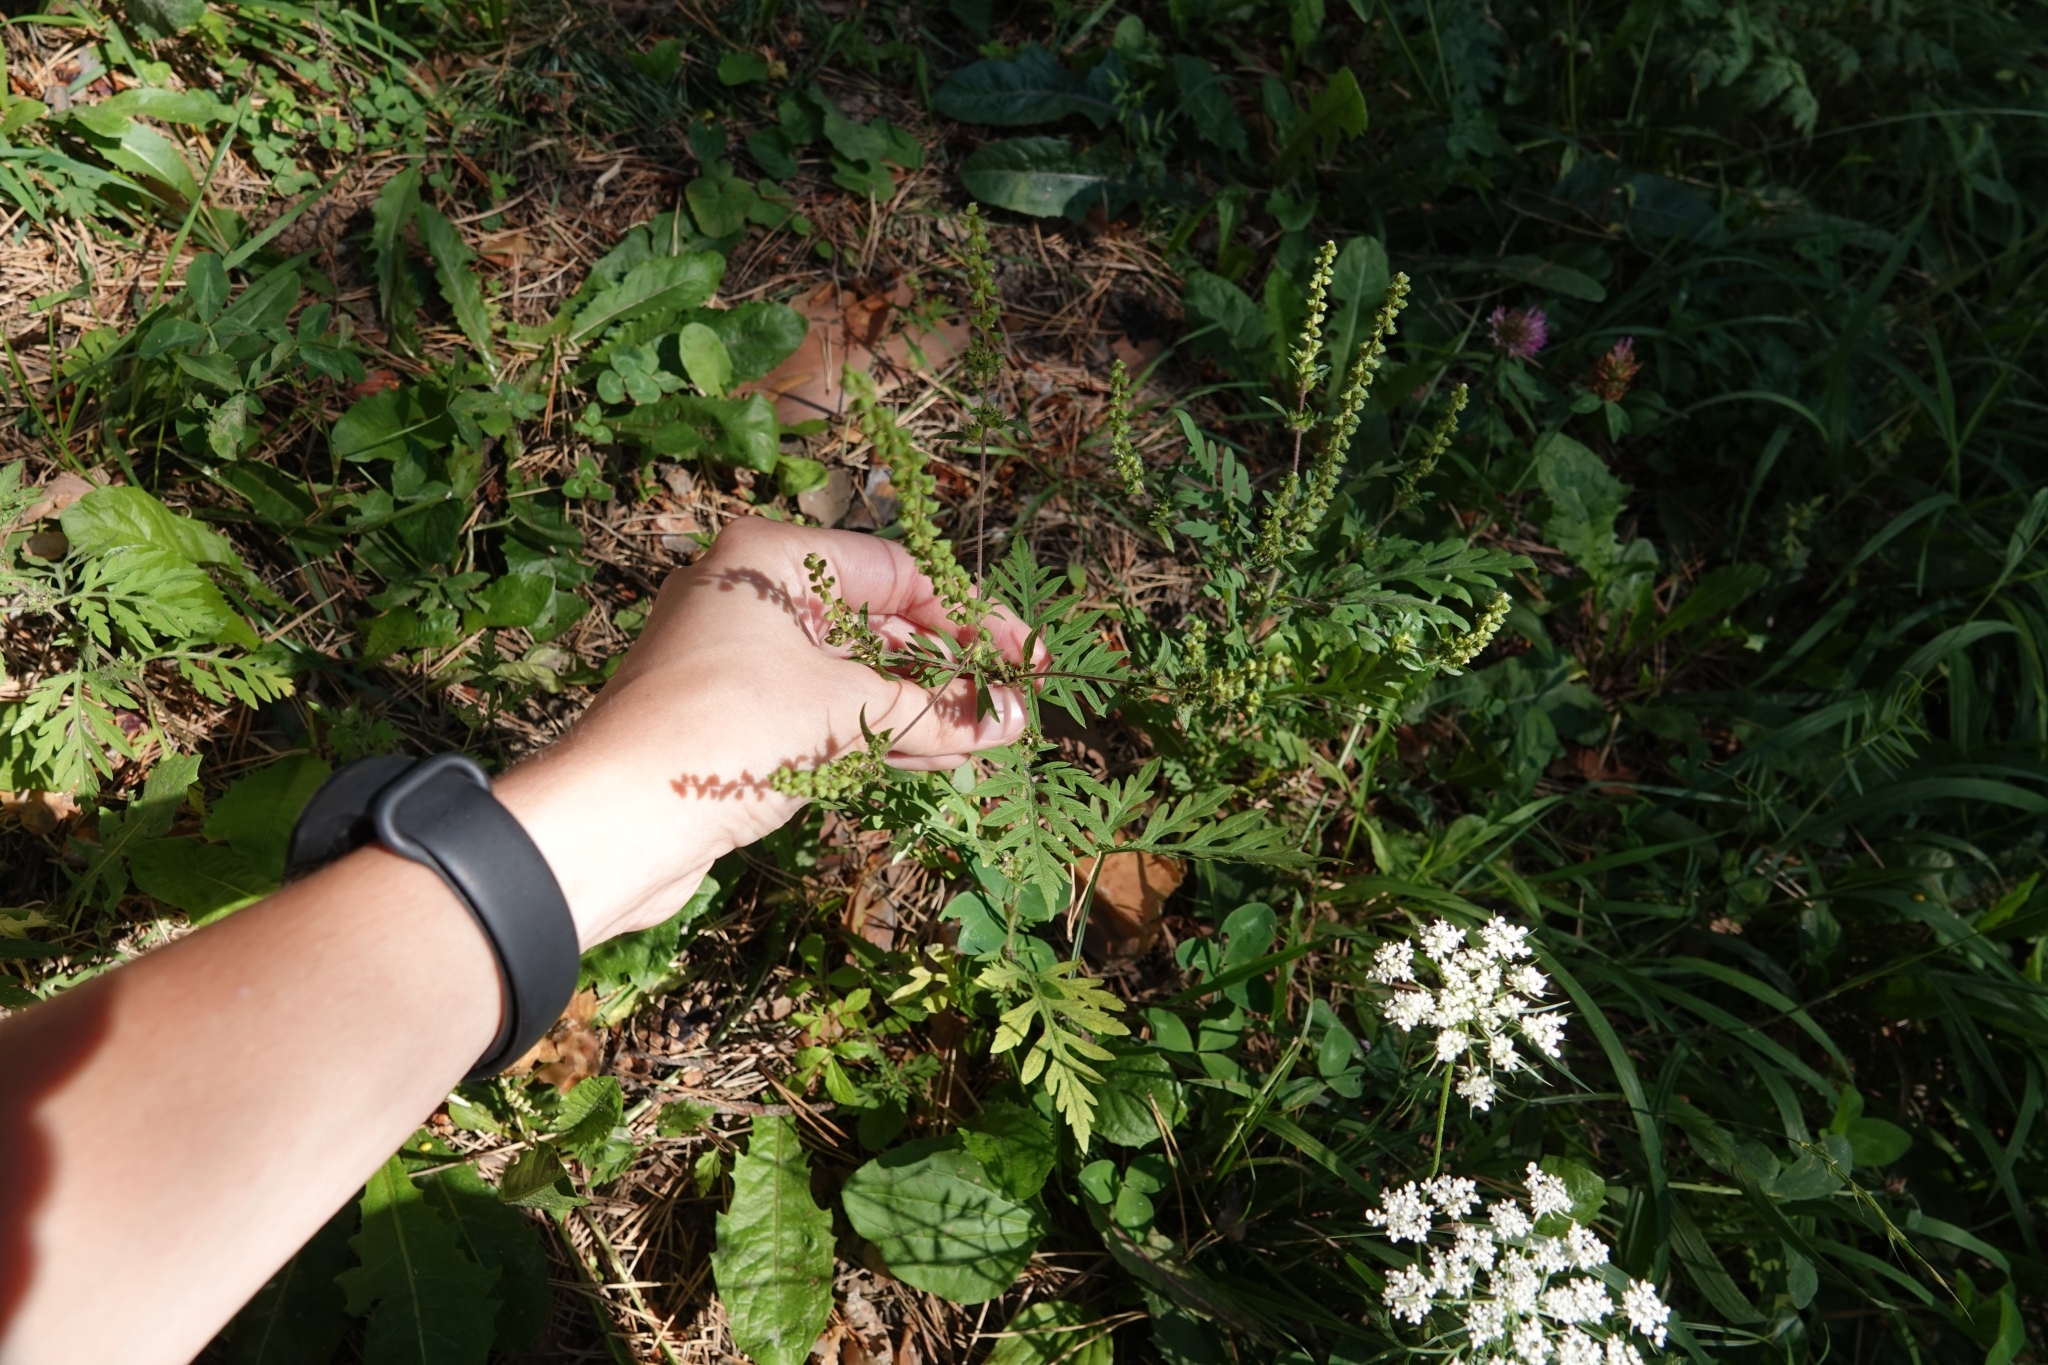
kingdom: Plantae
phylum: Tracheophyta
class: Magnoliopsida
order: Asterales
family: Asteraceae
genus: Ambrosia
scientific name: Ambrosia artemisiifolia
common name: Annual ragweed
